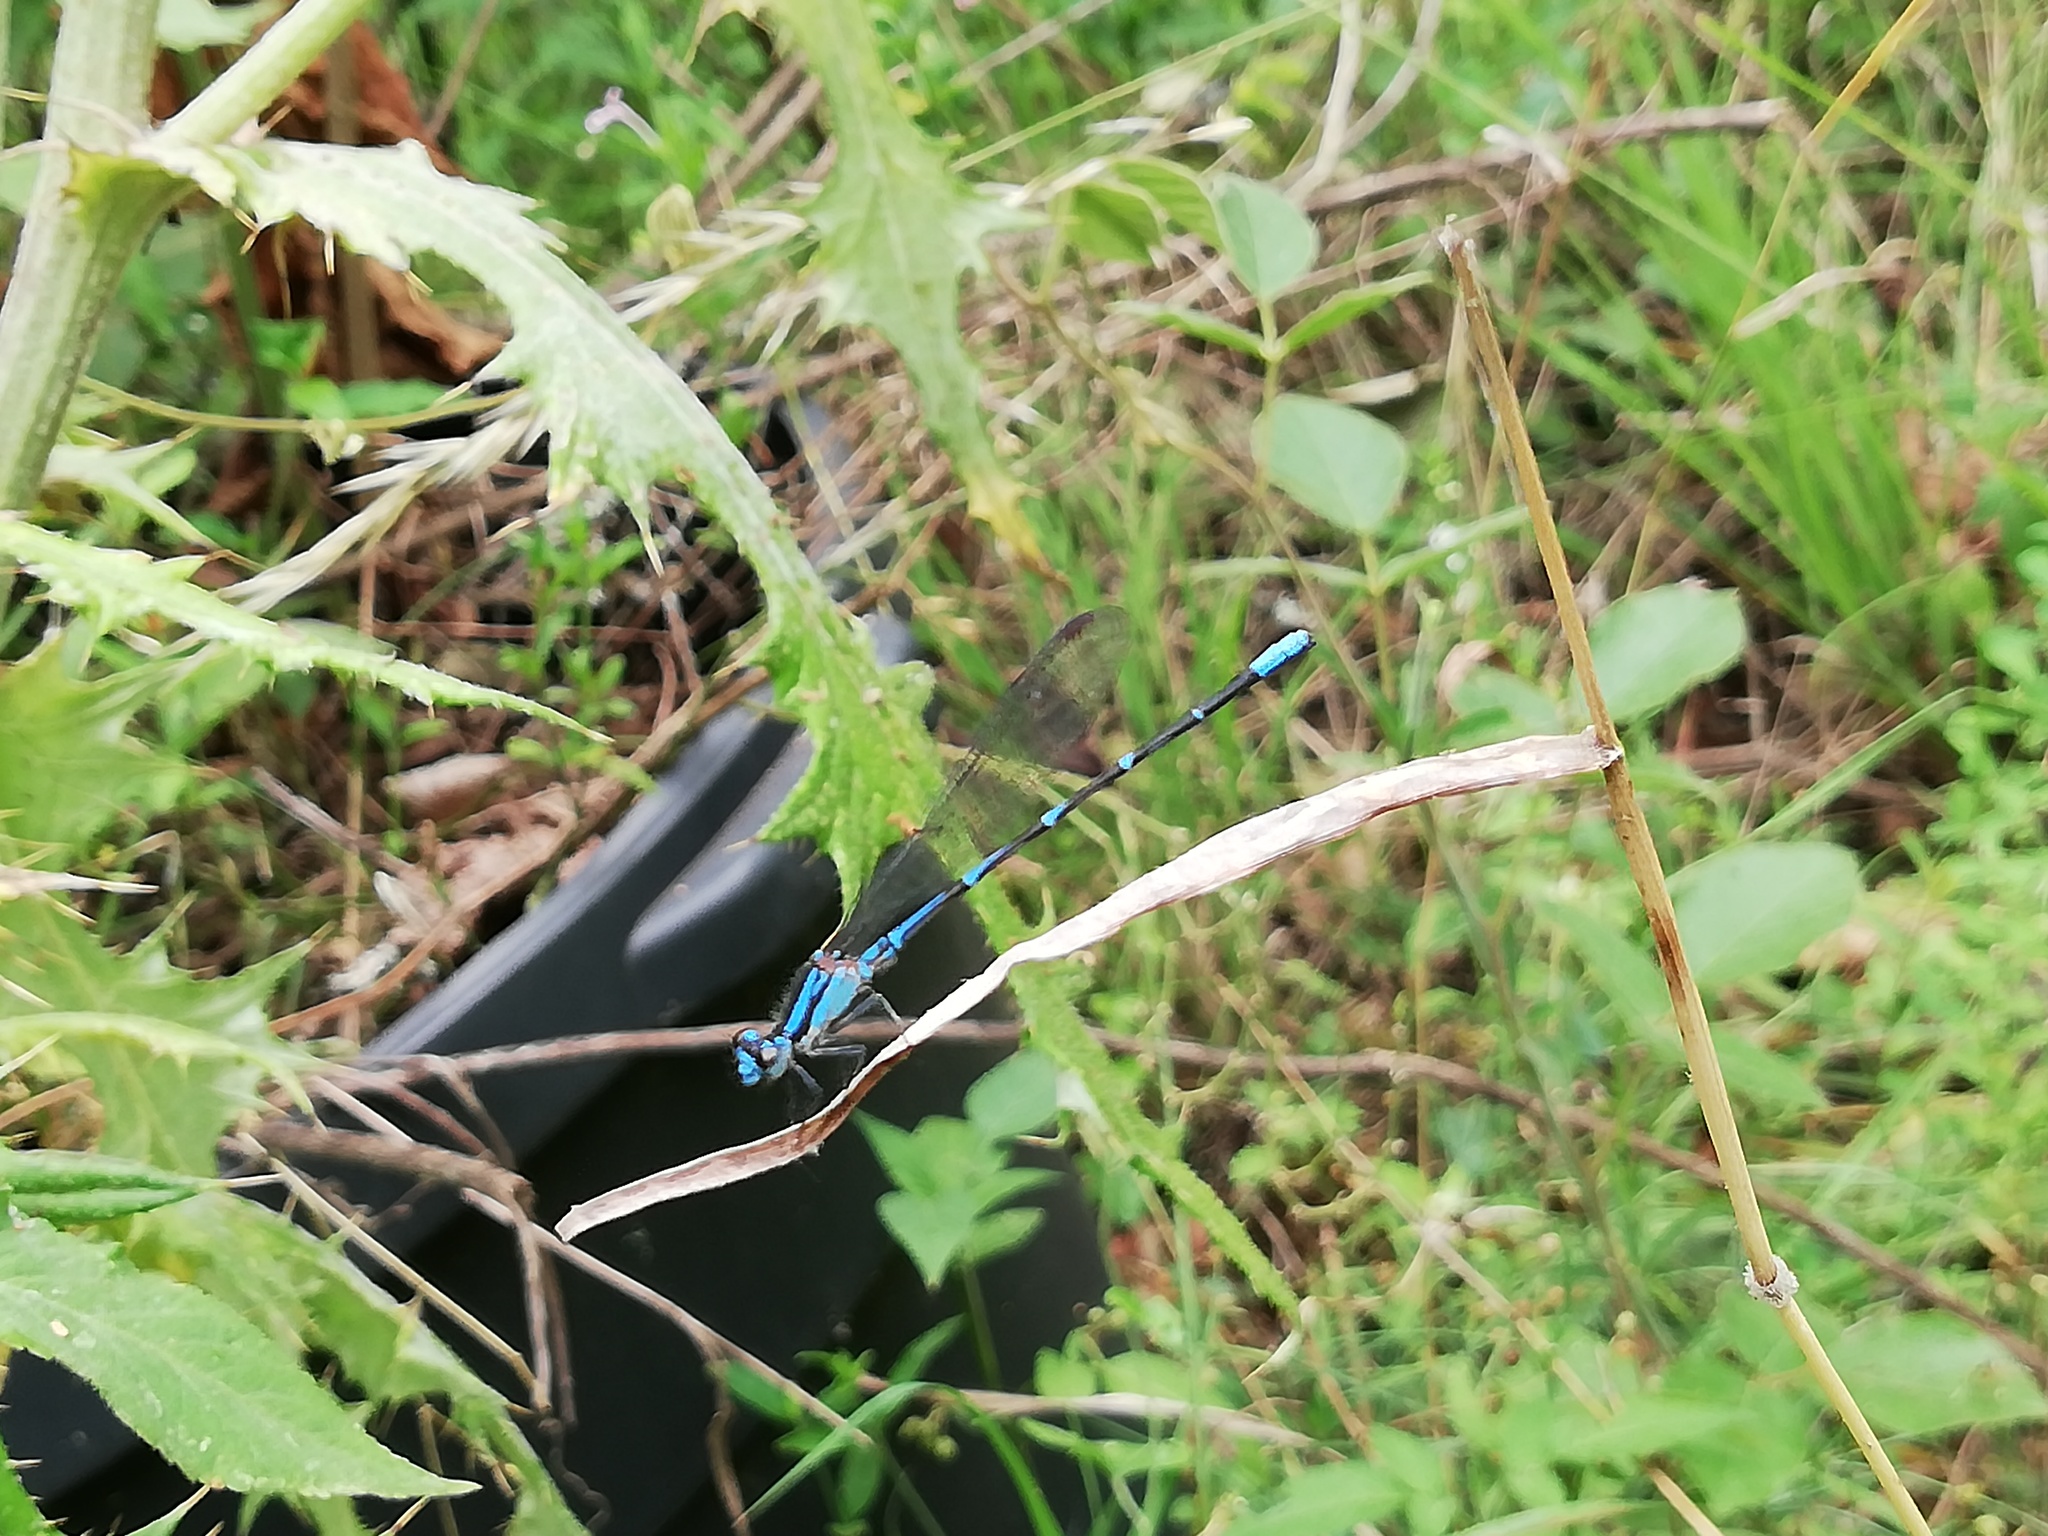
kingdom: Animalia
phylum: Arthropoda
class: Insecta
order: Odonata
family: Coenagrionidae
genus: Argia
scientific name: Argia oculata
